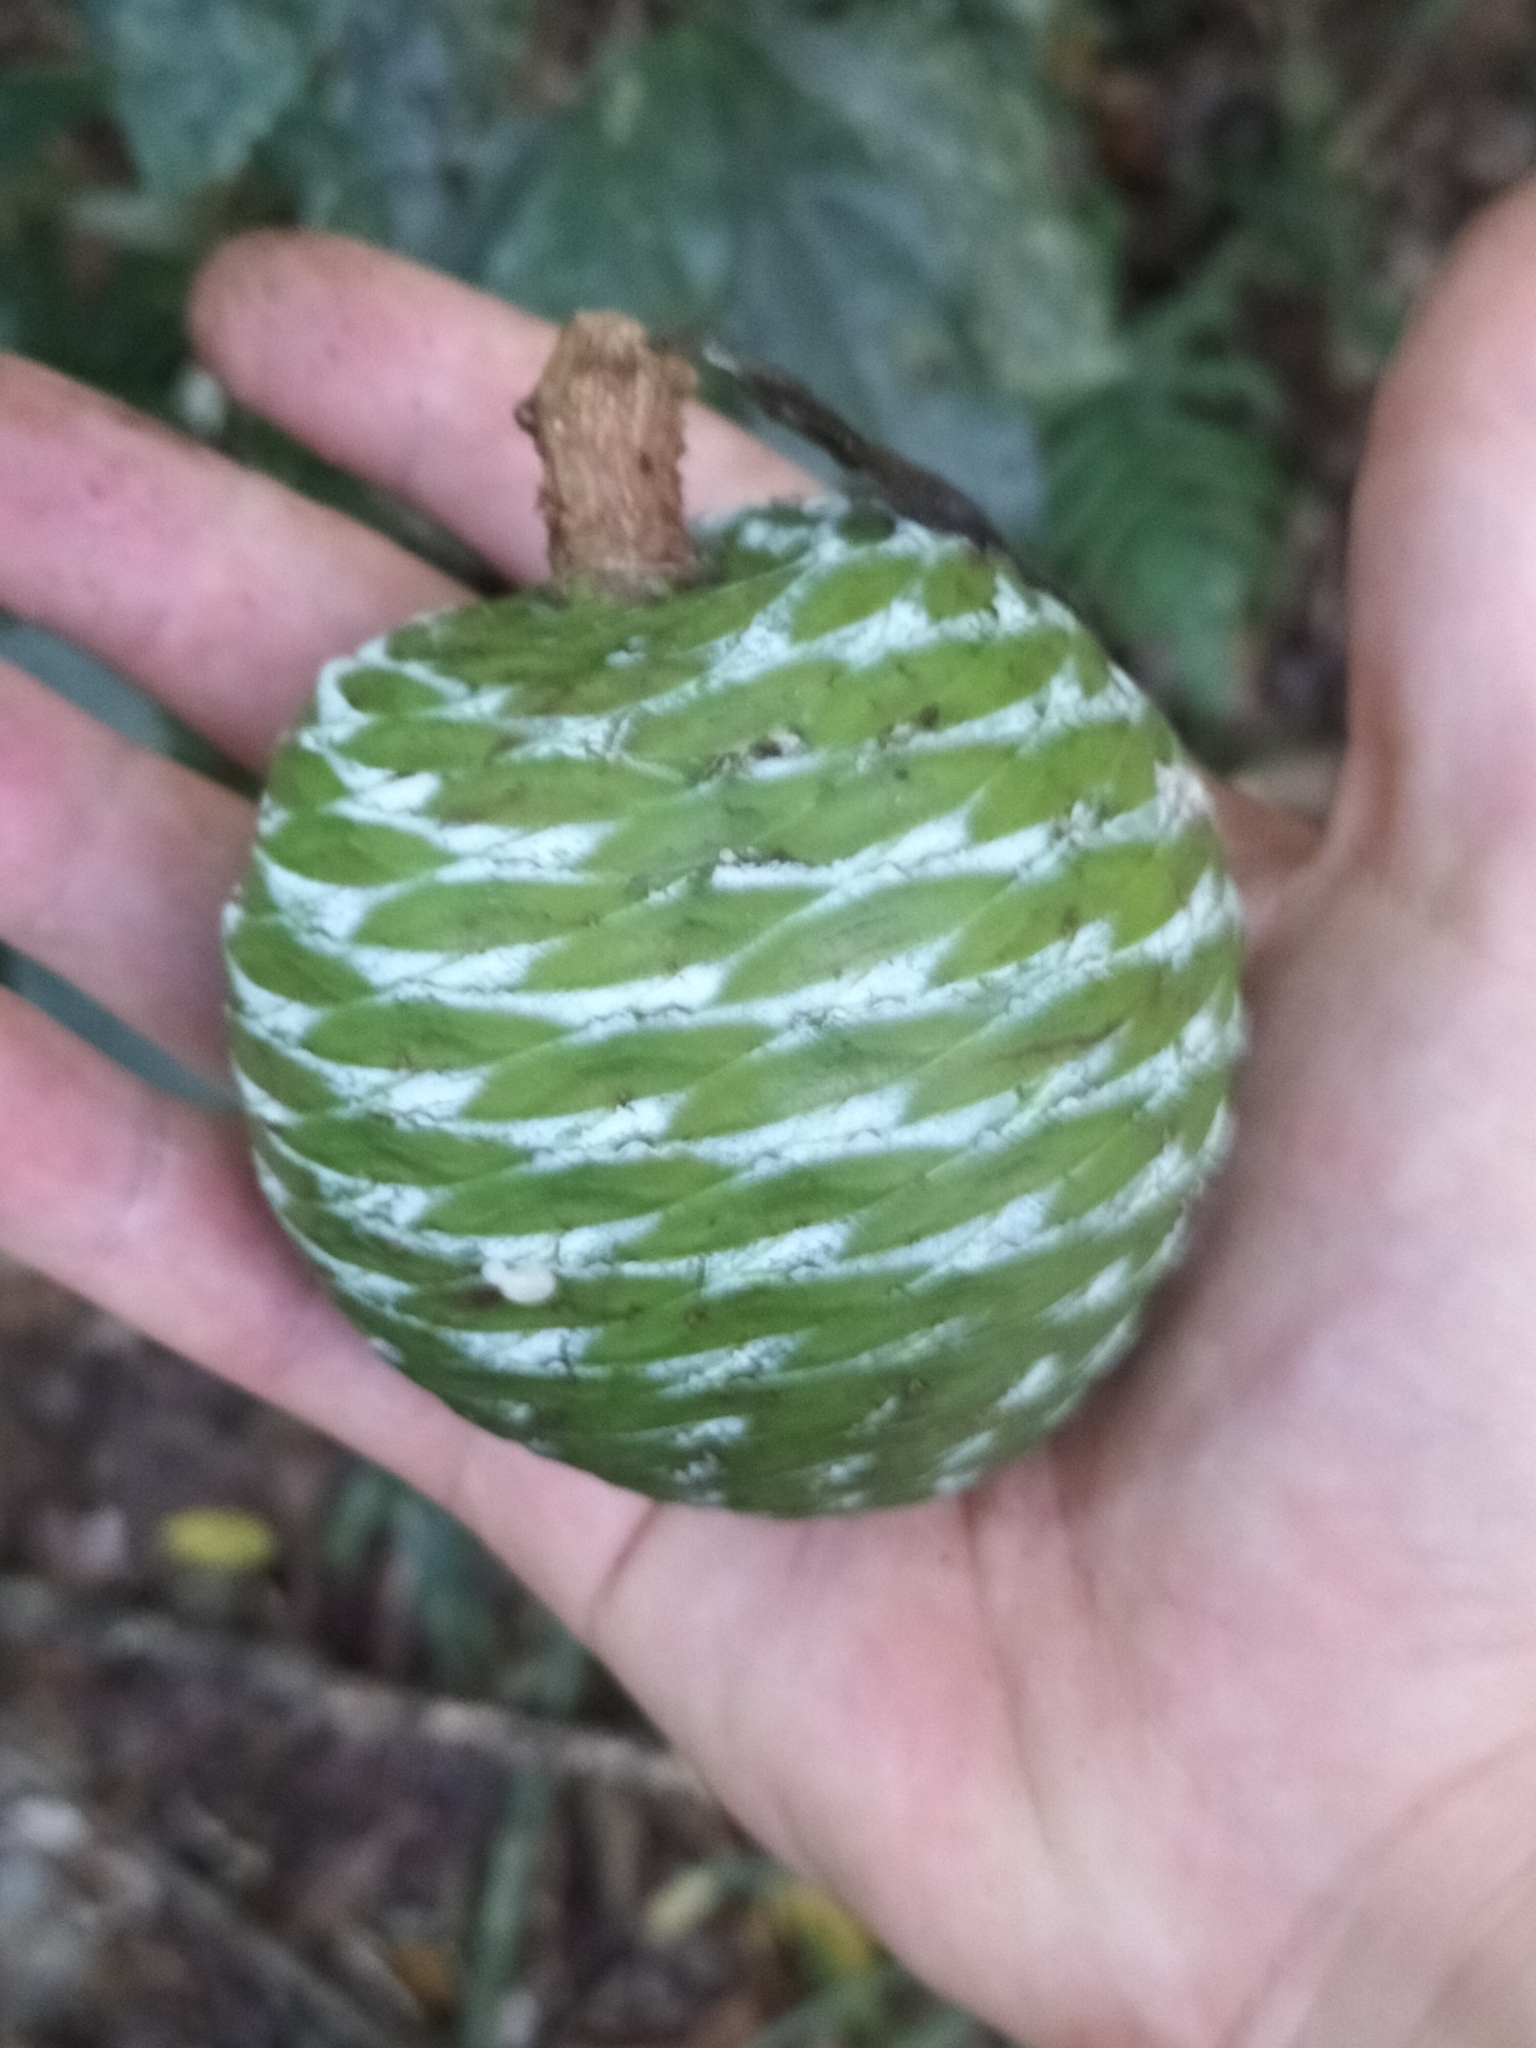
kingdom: Plantae
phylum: Tracheophyta
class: Pinopsida
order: Pinales
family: Araucariaceae
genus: Agathis
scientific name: Agathis microstachya
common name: Bull kauri
